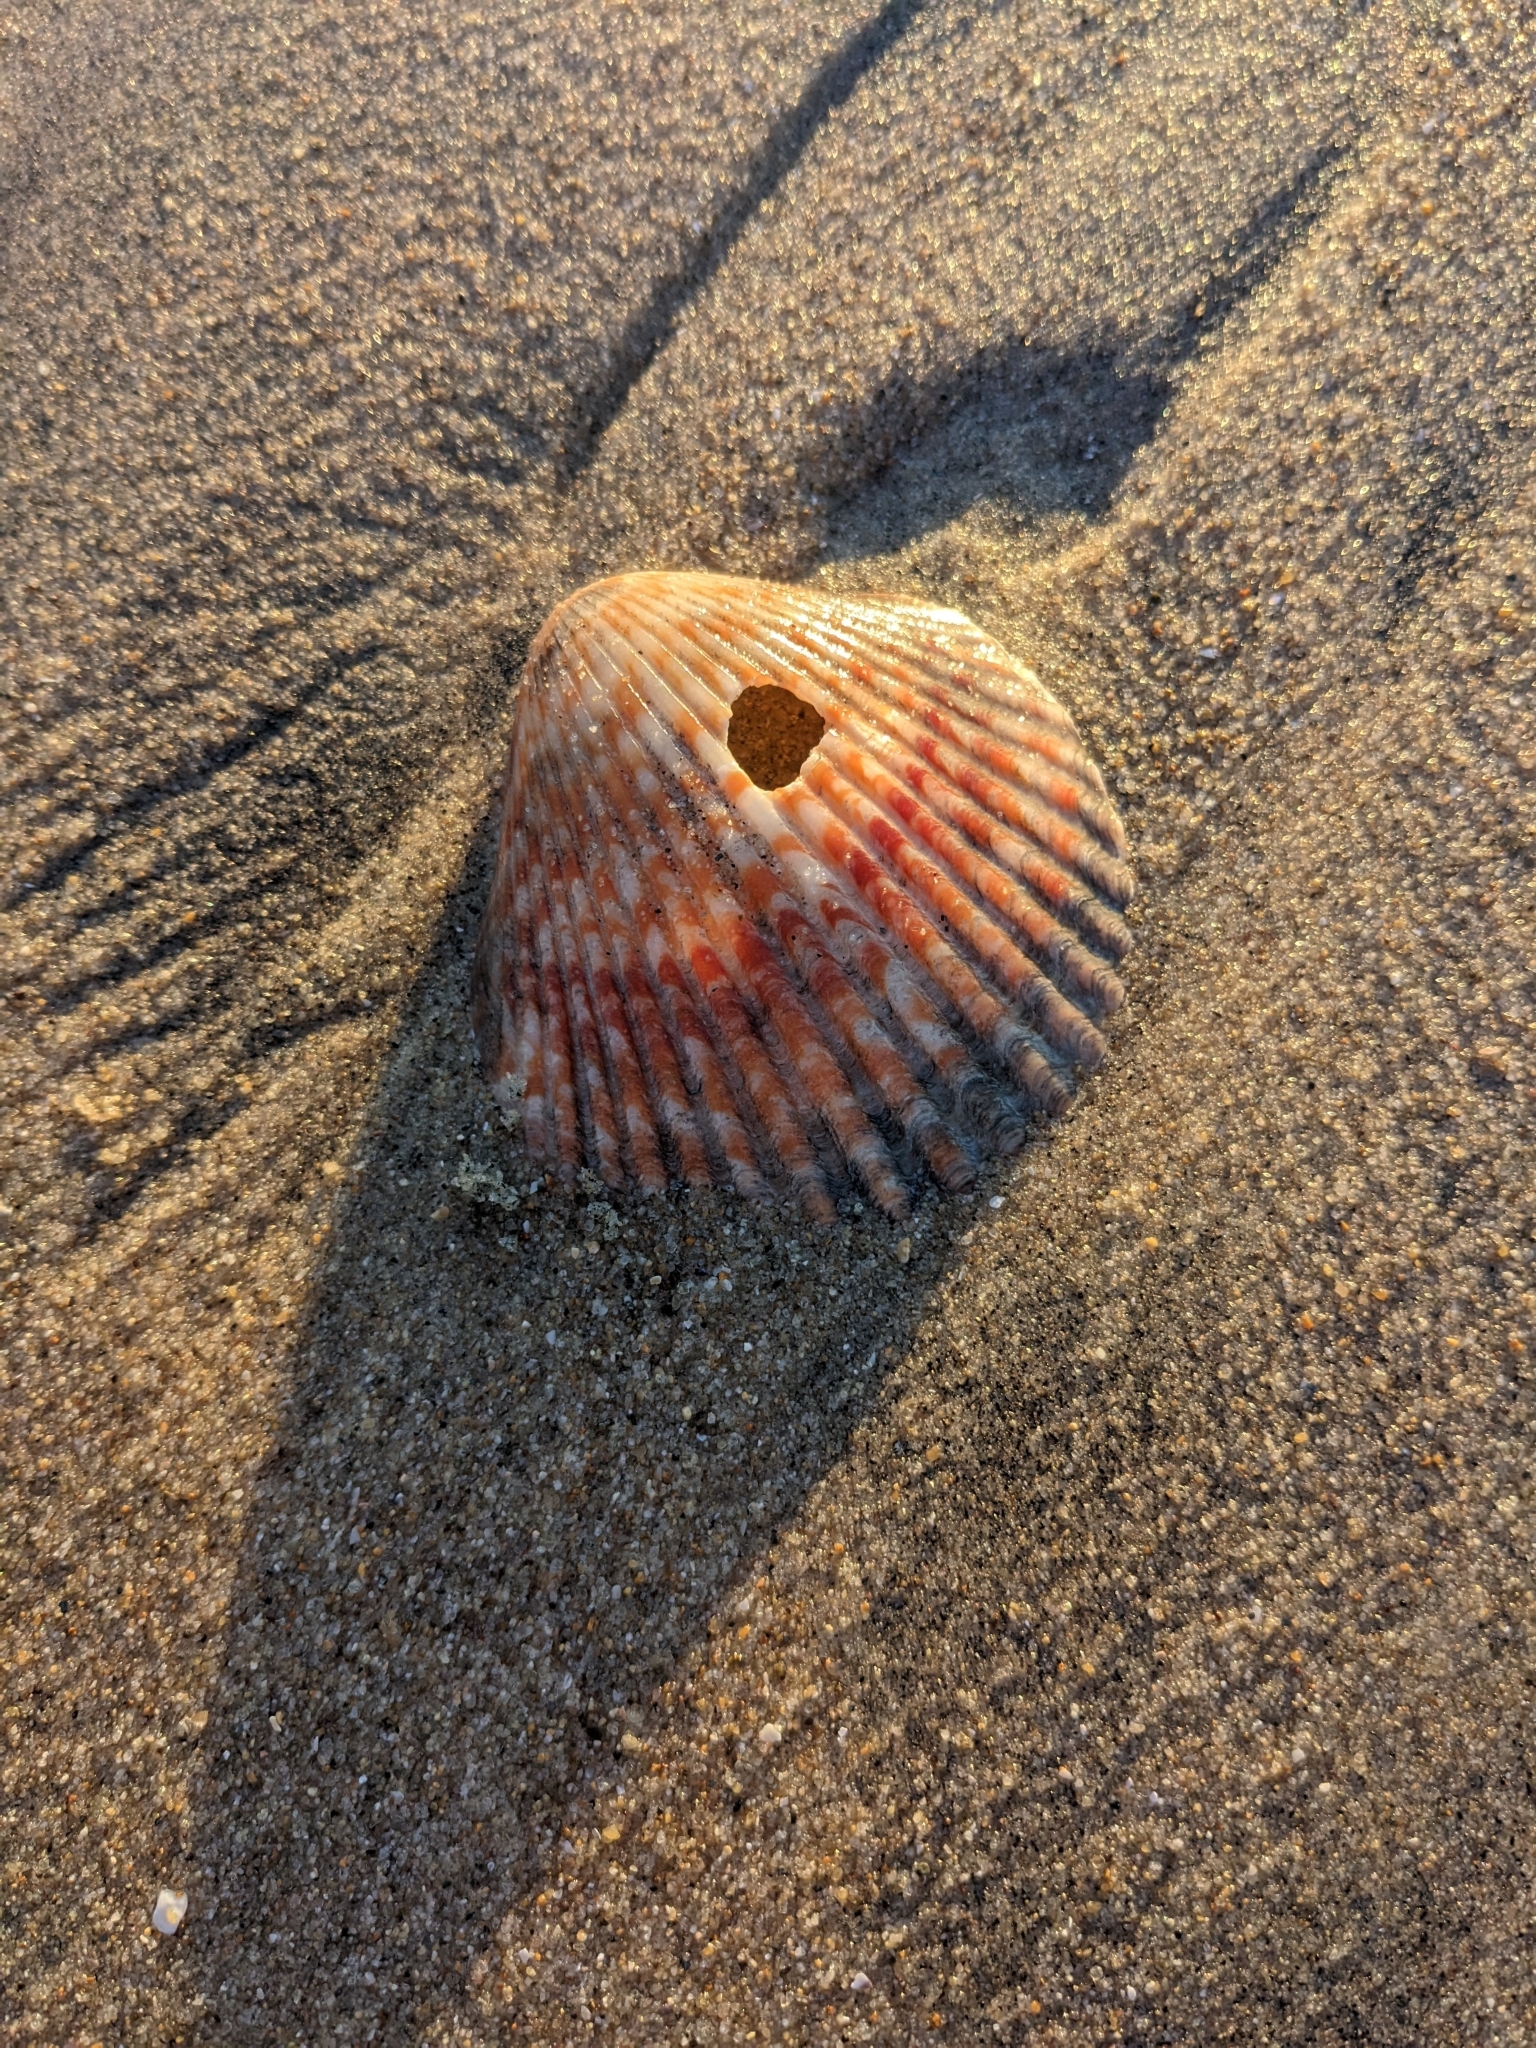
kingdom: Animalia
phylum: Mollusca
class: Bivalvia
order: Pectinida
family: Pectinidae
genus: Argopecten
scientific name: Argopecten ventricosus
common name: Catarina scallop
